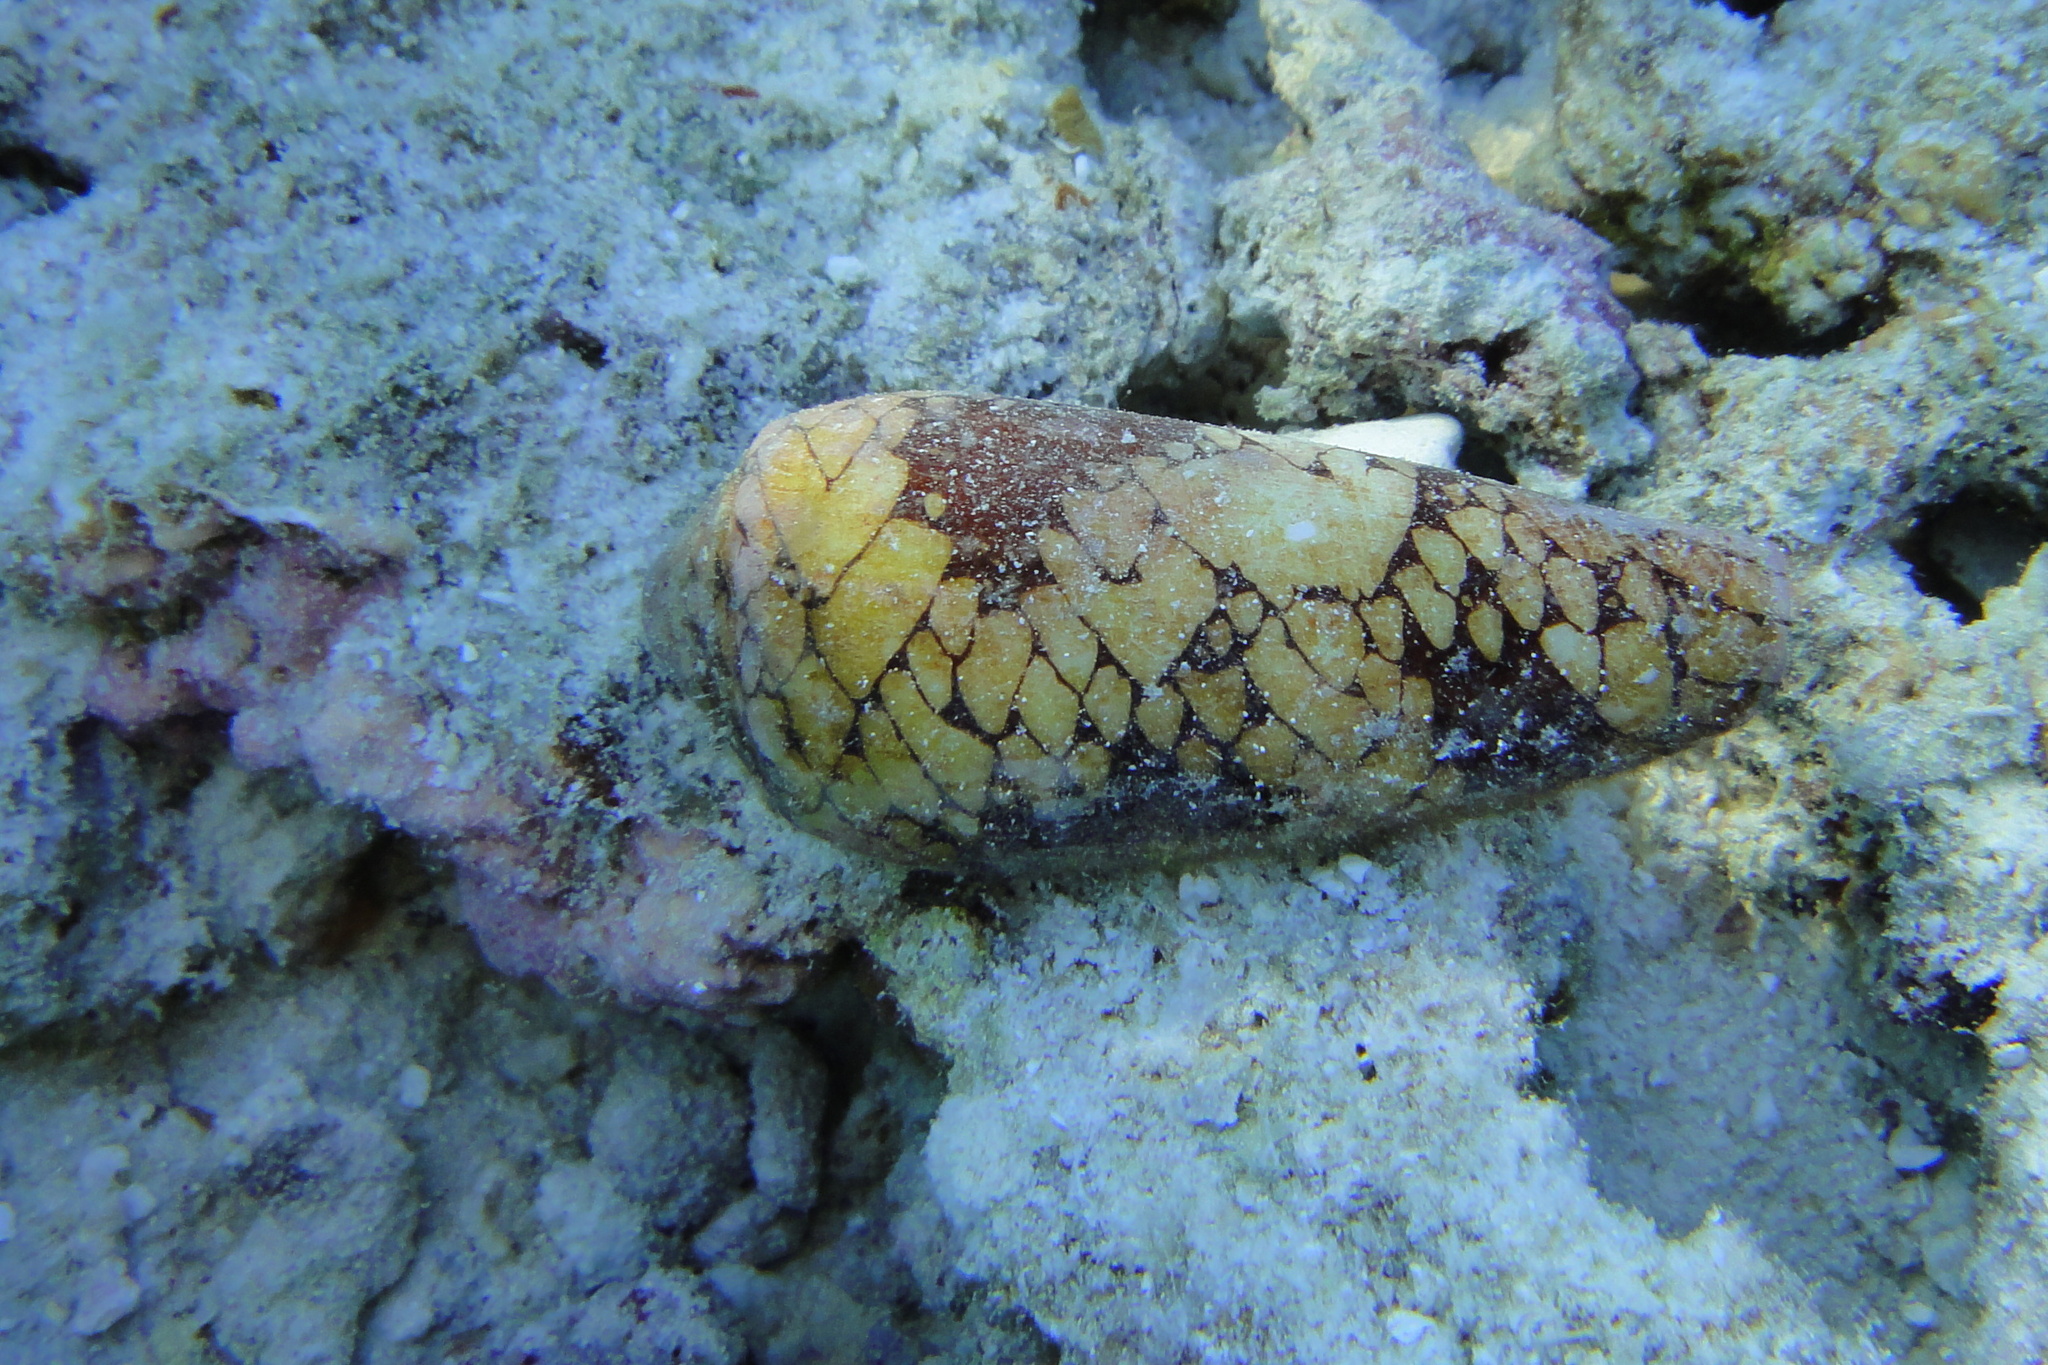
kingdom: Animalia
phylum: Mollusca
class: Gastropoda
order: Neogastropoda
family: Conidae
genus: Conus
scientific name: Conus episcopatus
